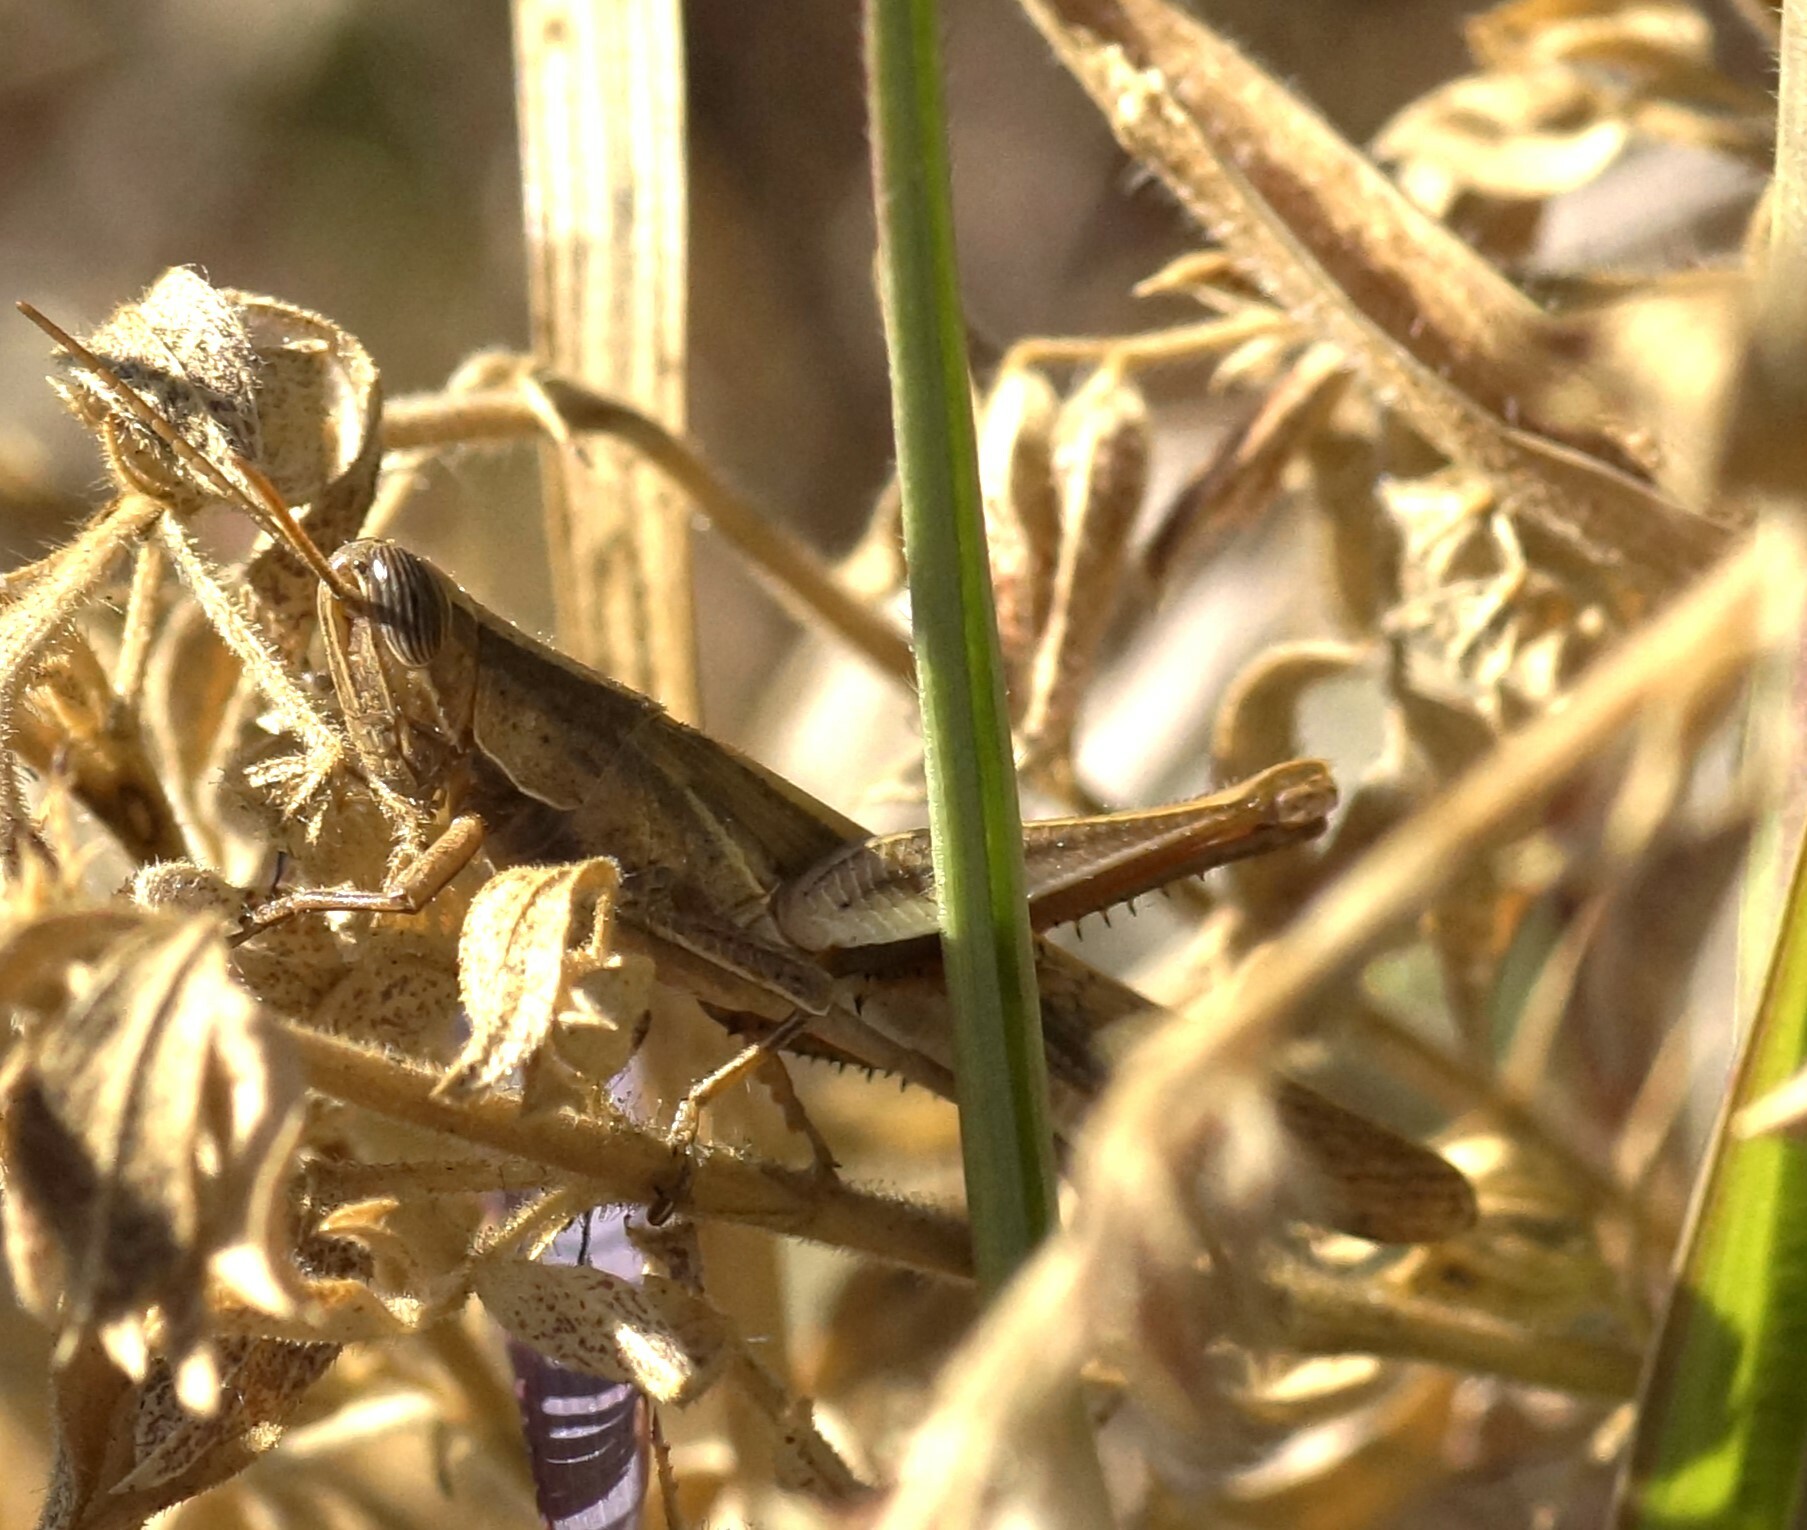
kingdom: Animalia
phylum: Arthropoda
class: Insecta
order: Orthoptera
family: Acrididae
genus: Stenocatantops
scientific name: Stenocatantops vitripennis
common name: Light-brown sharptail
